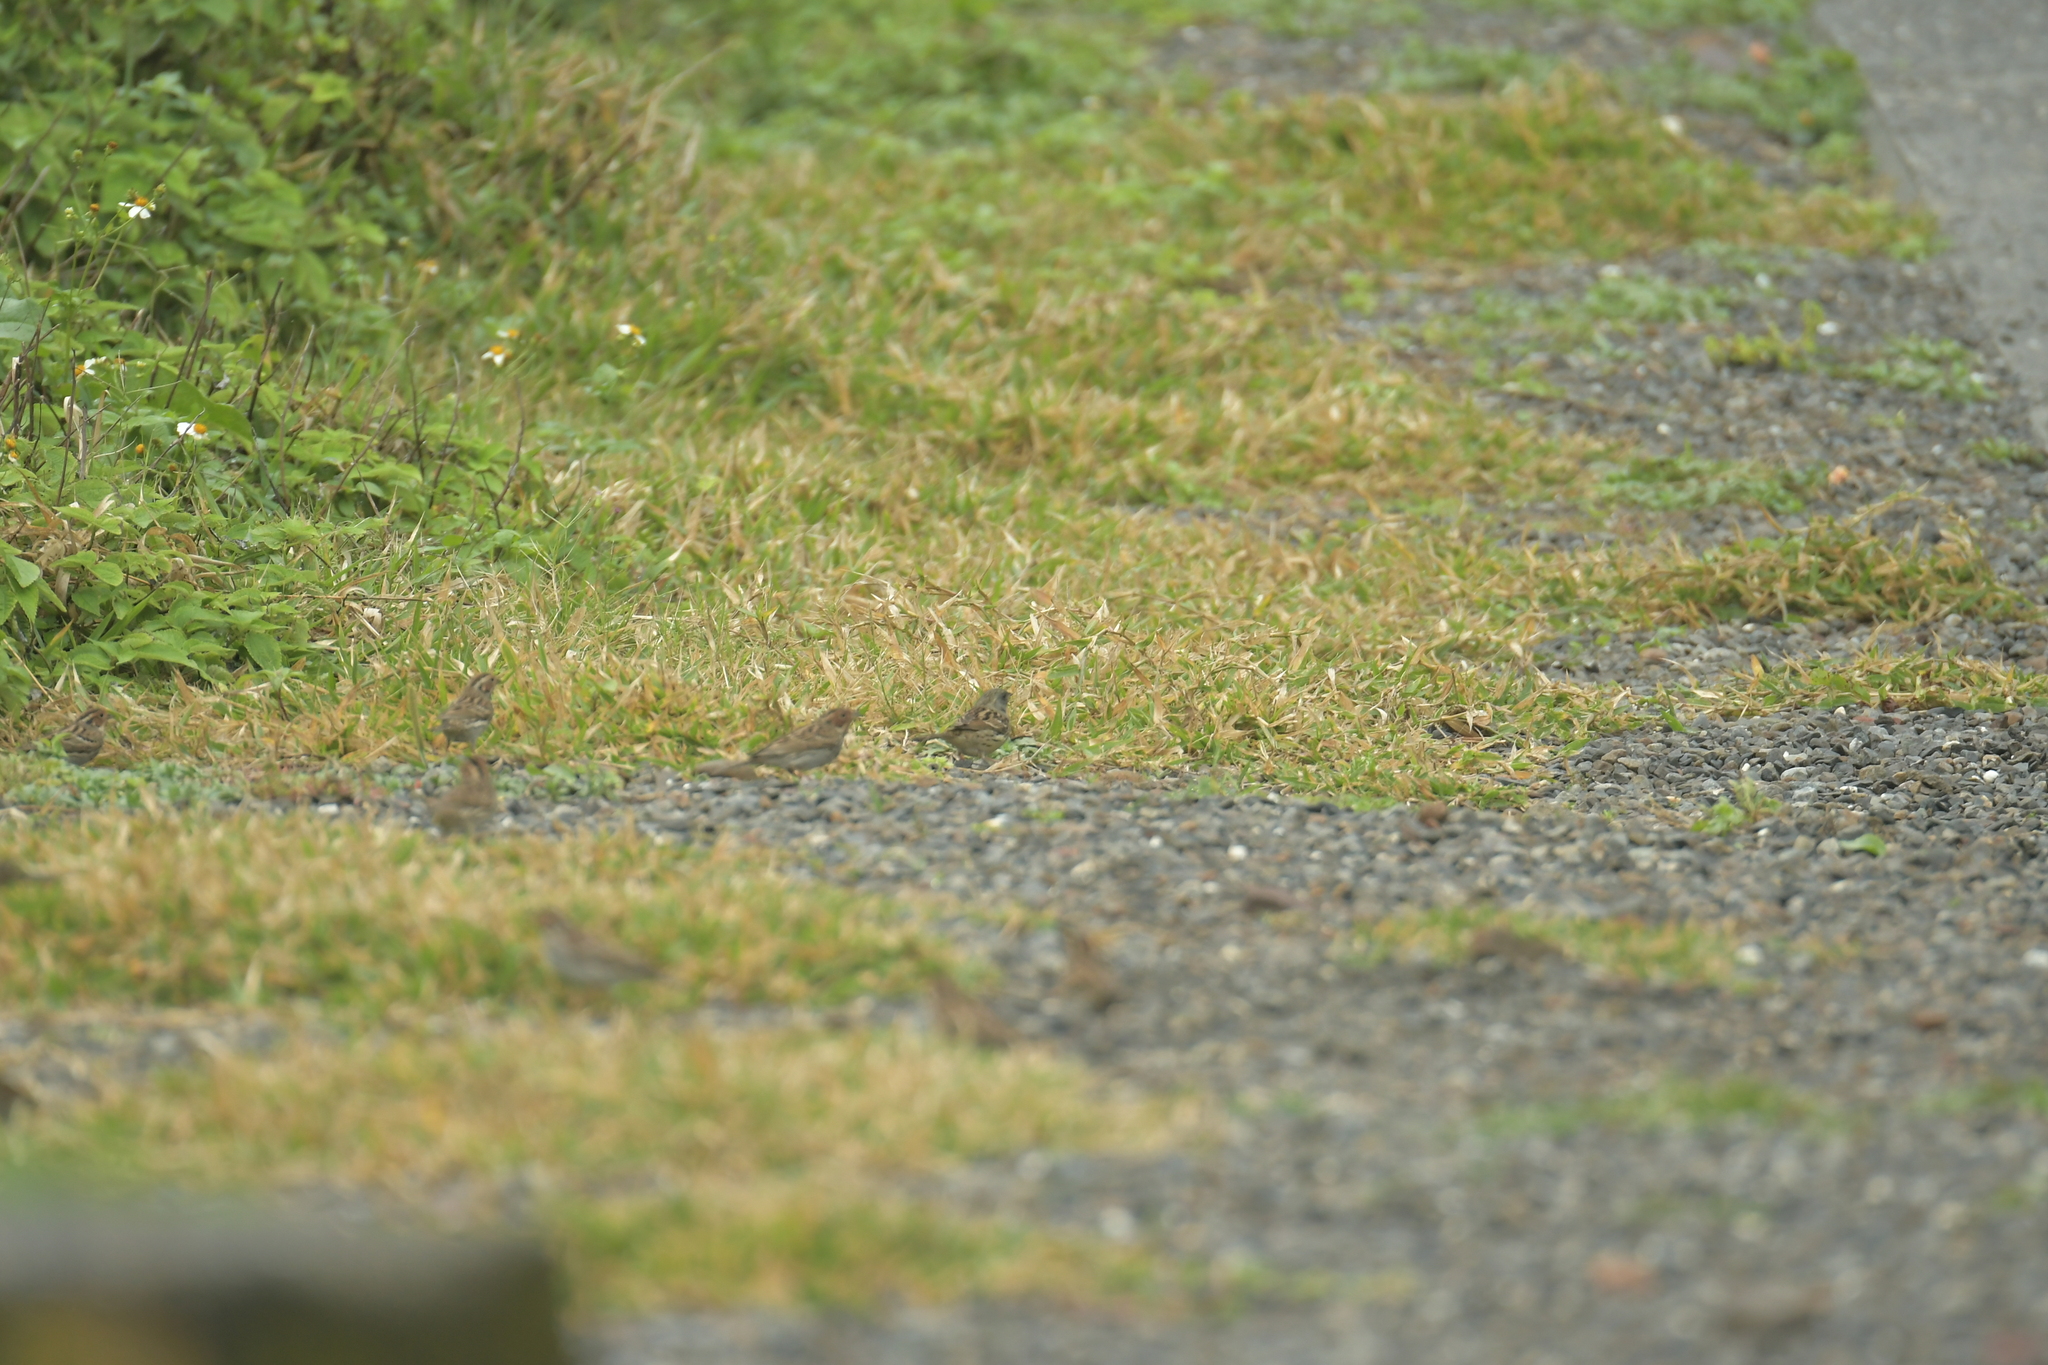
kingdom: Animalia
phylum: Chordata
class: Aves
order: Passeriformes
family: Emberizidae
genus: Emberiza
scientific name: Emberiza spodocephala
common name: Black-faced bunting
